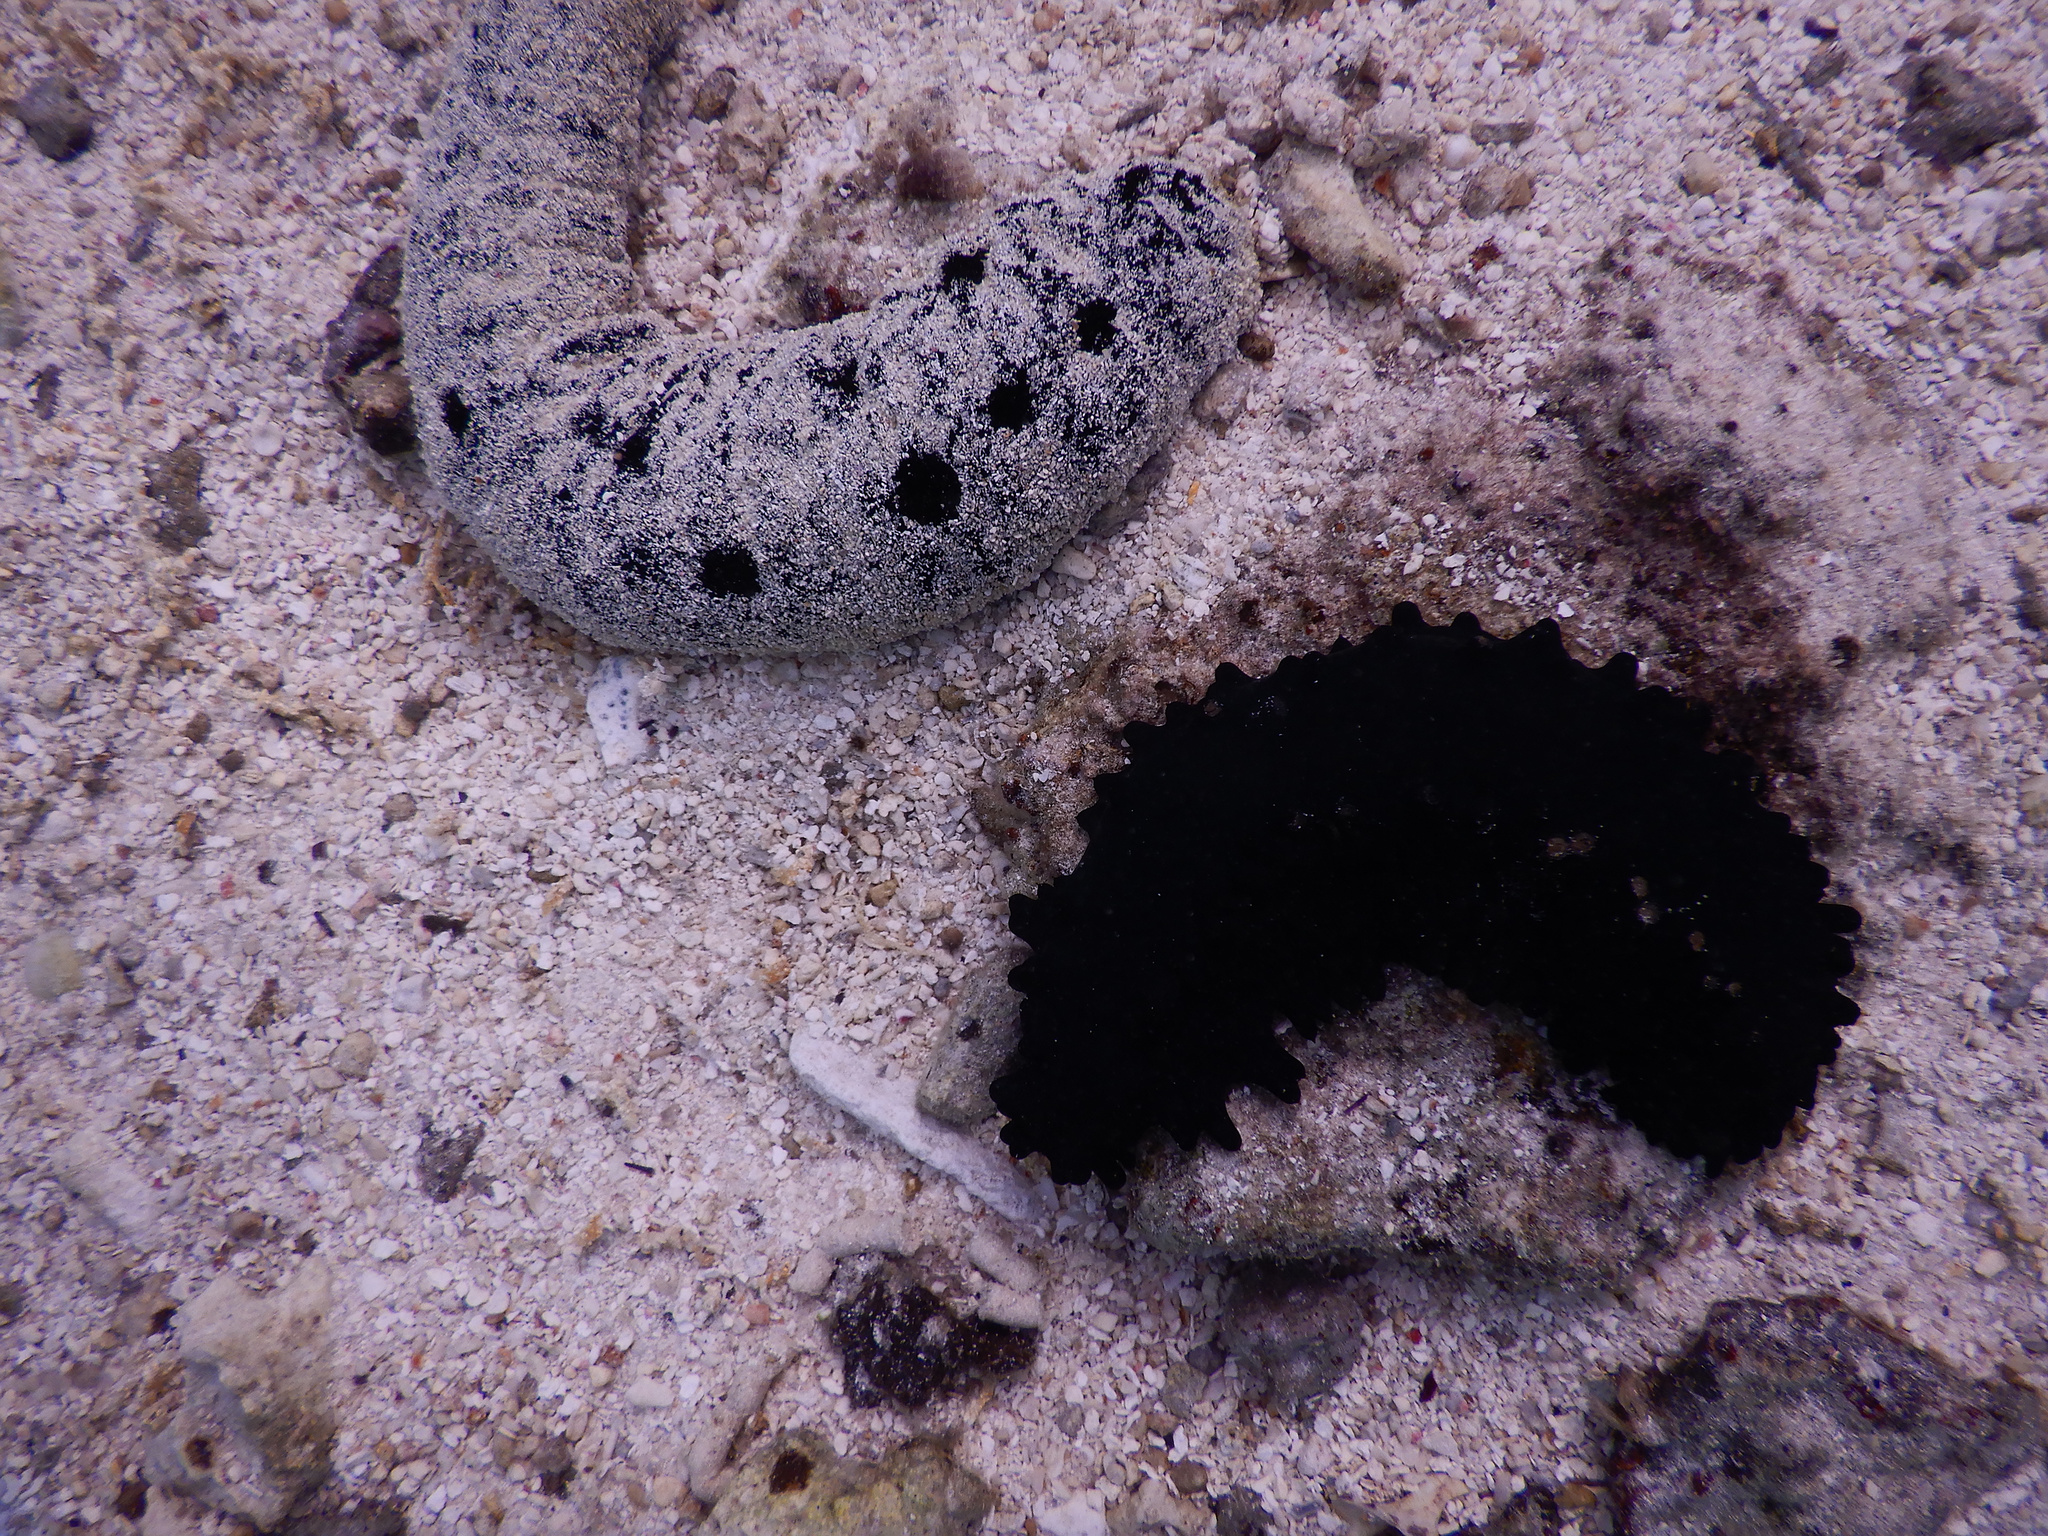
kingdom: Animalia
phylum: Echinodermata
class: Holothuroidea
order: Holothuriida
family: Holothuriidae
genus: Holothuria
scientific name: Holothuria atra
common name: Lollyfish
